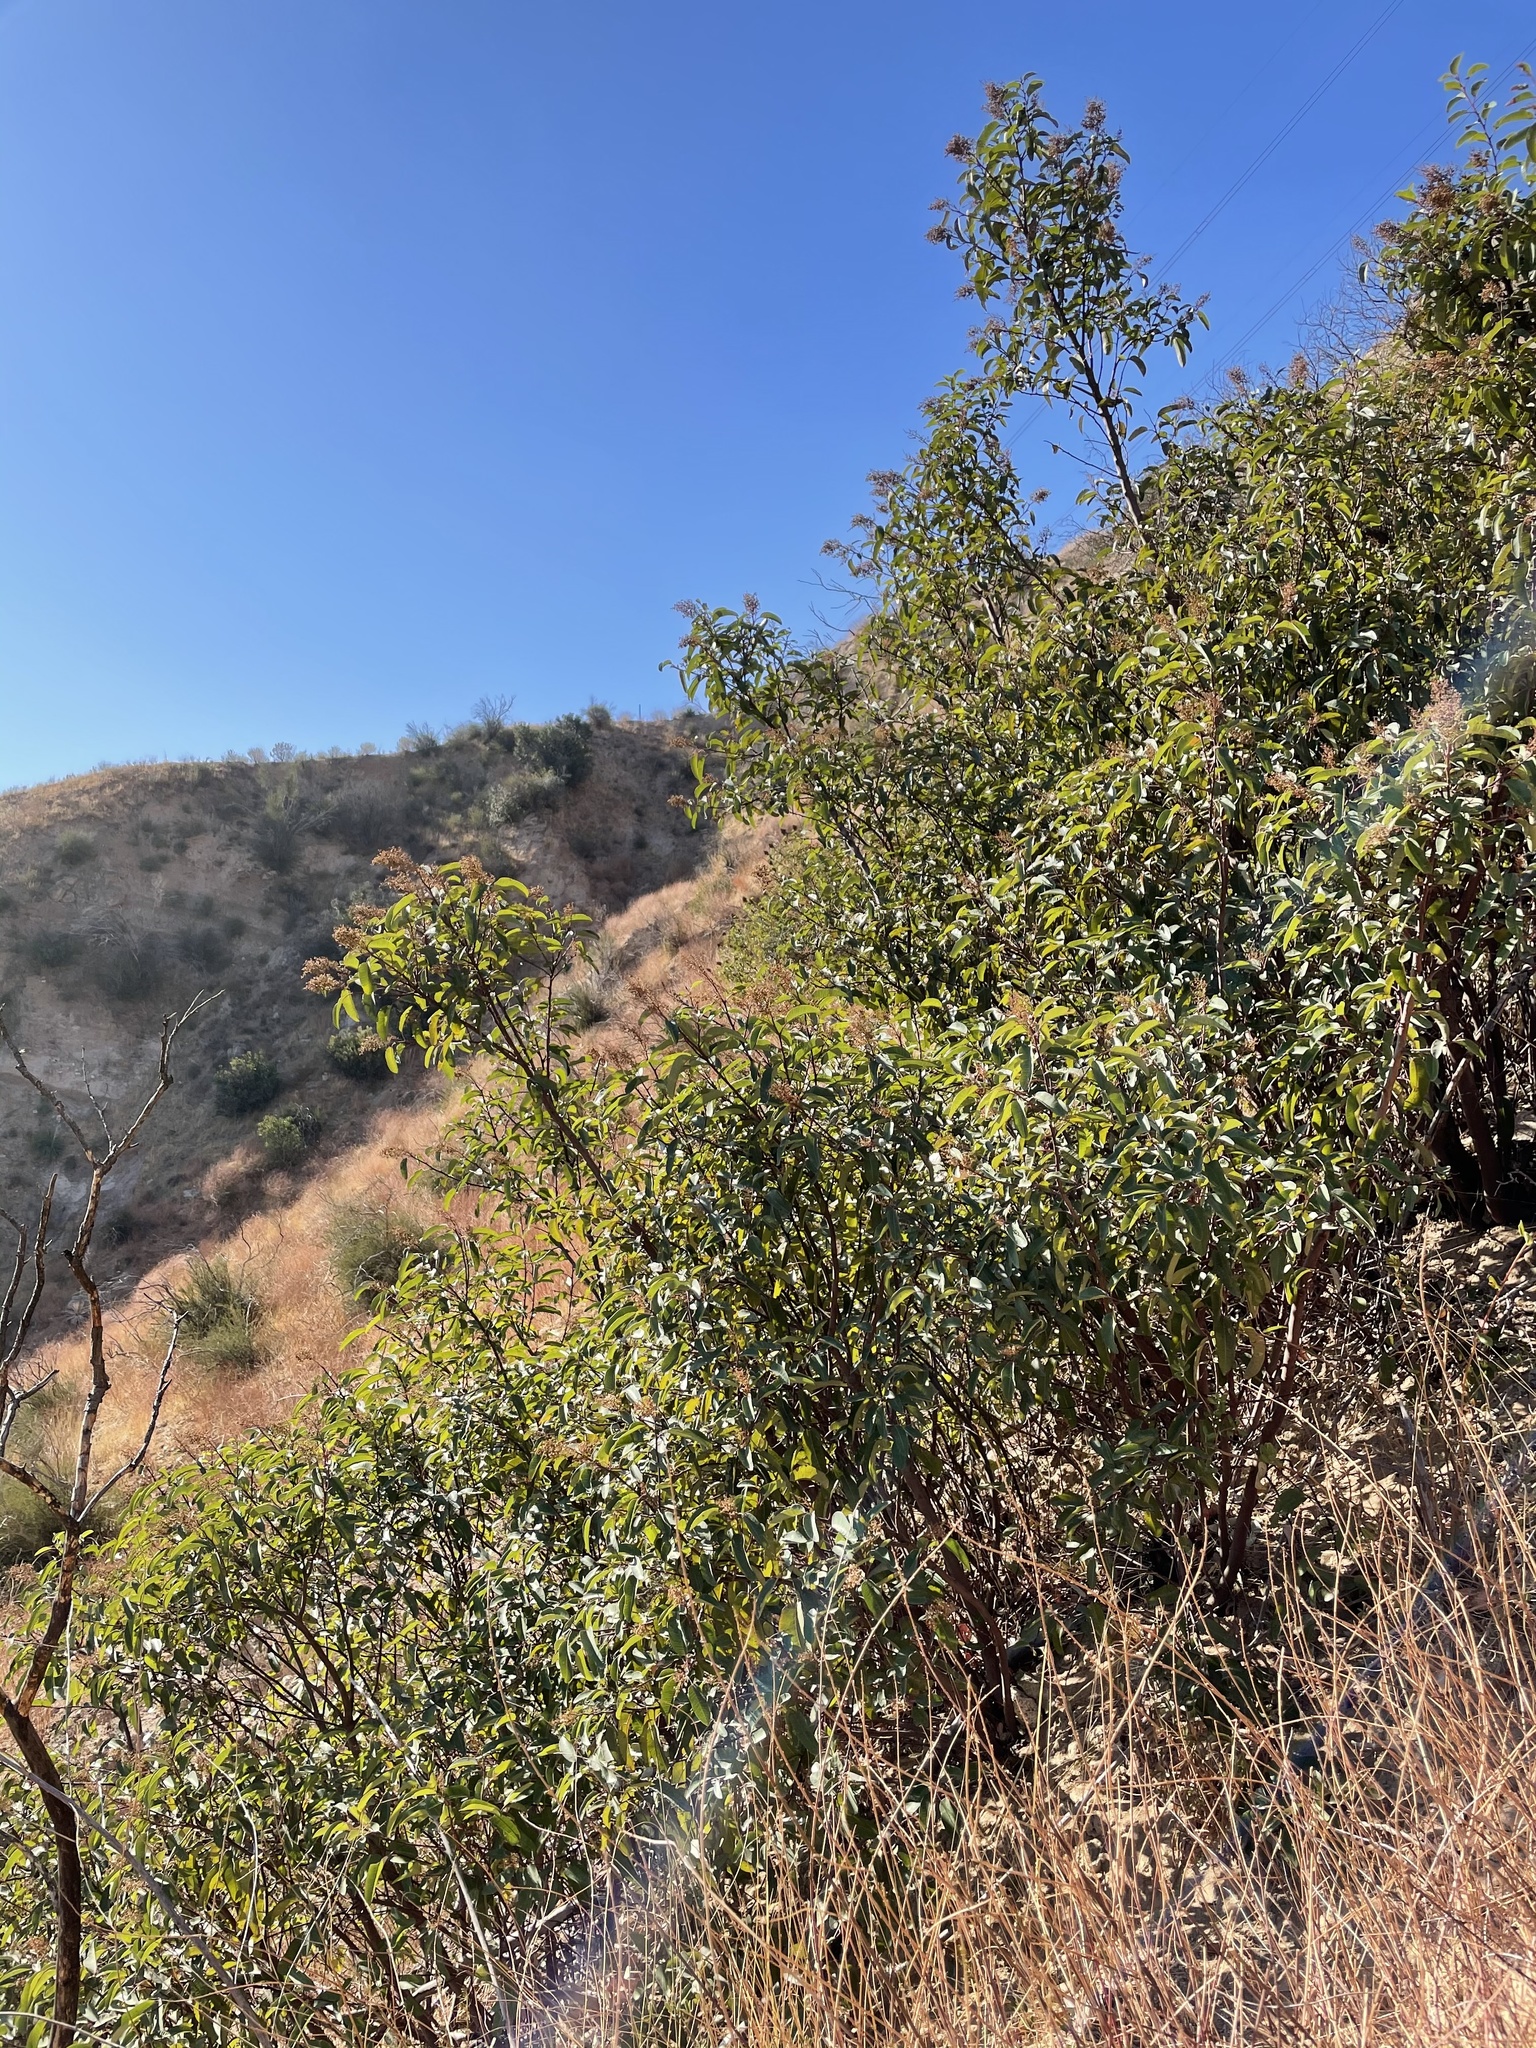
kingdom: Plantae
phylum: Tracheophyta
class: Magnoliopsida
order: Sapindales
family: Anacardiaceae
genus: Malosma
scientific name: Malosma laurina
